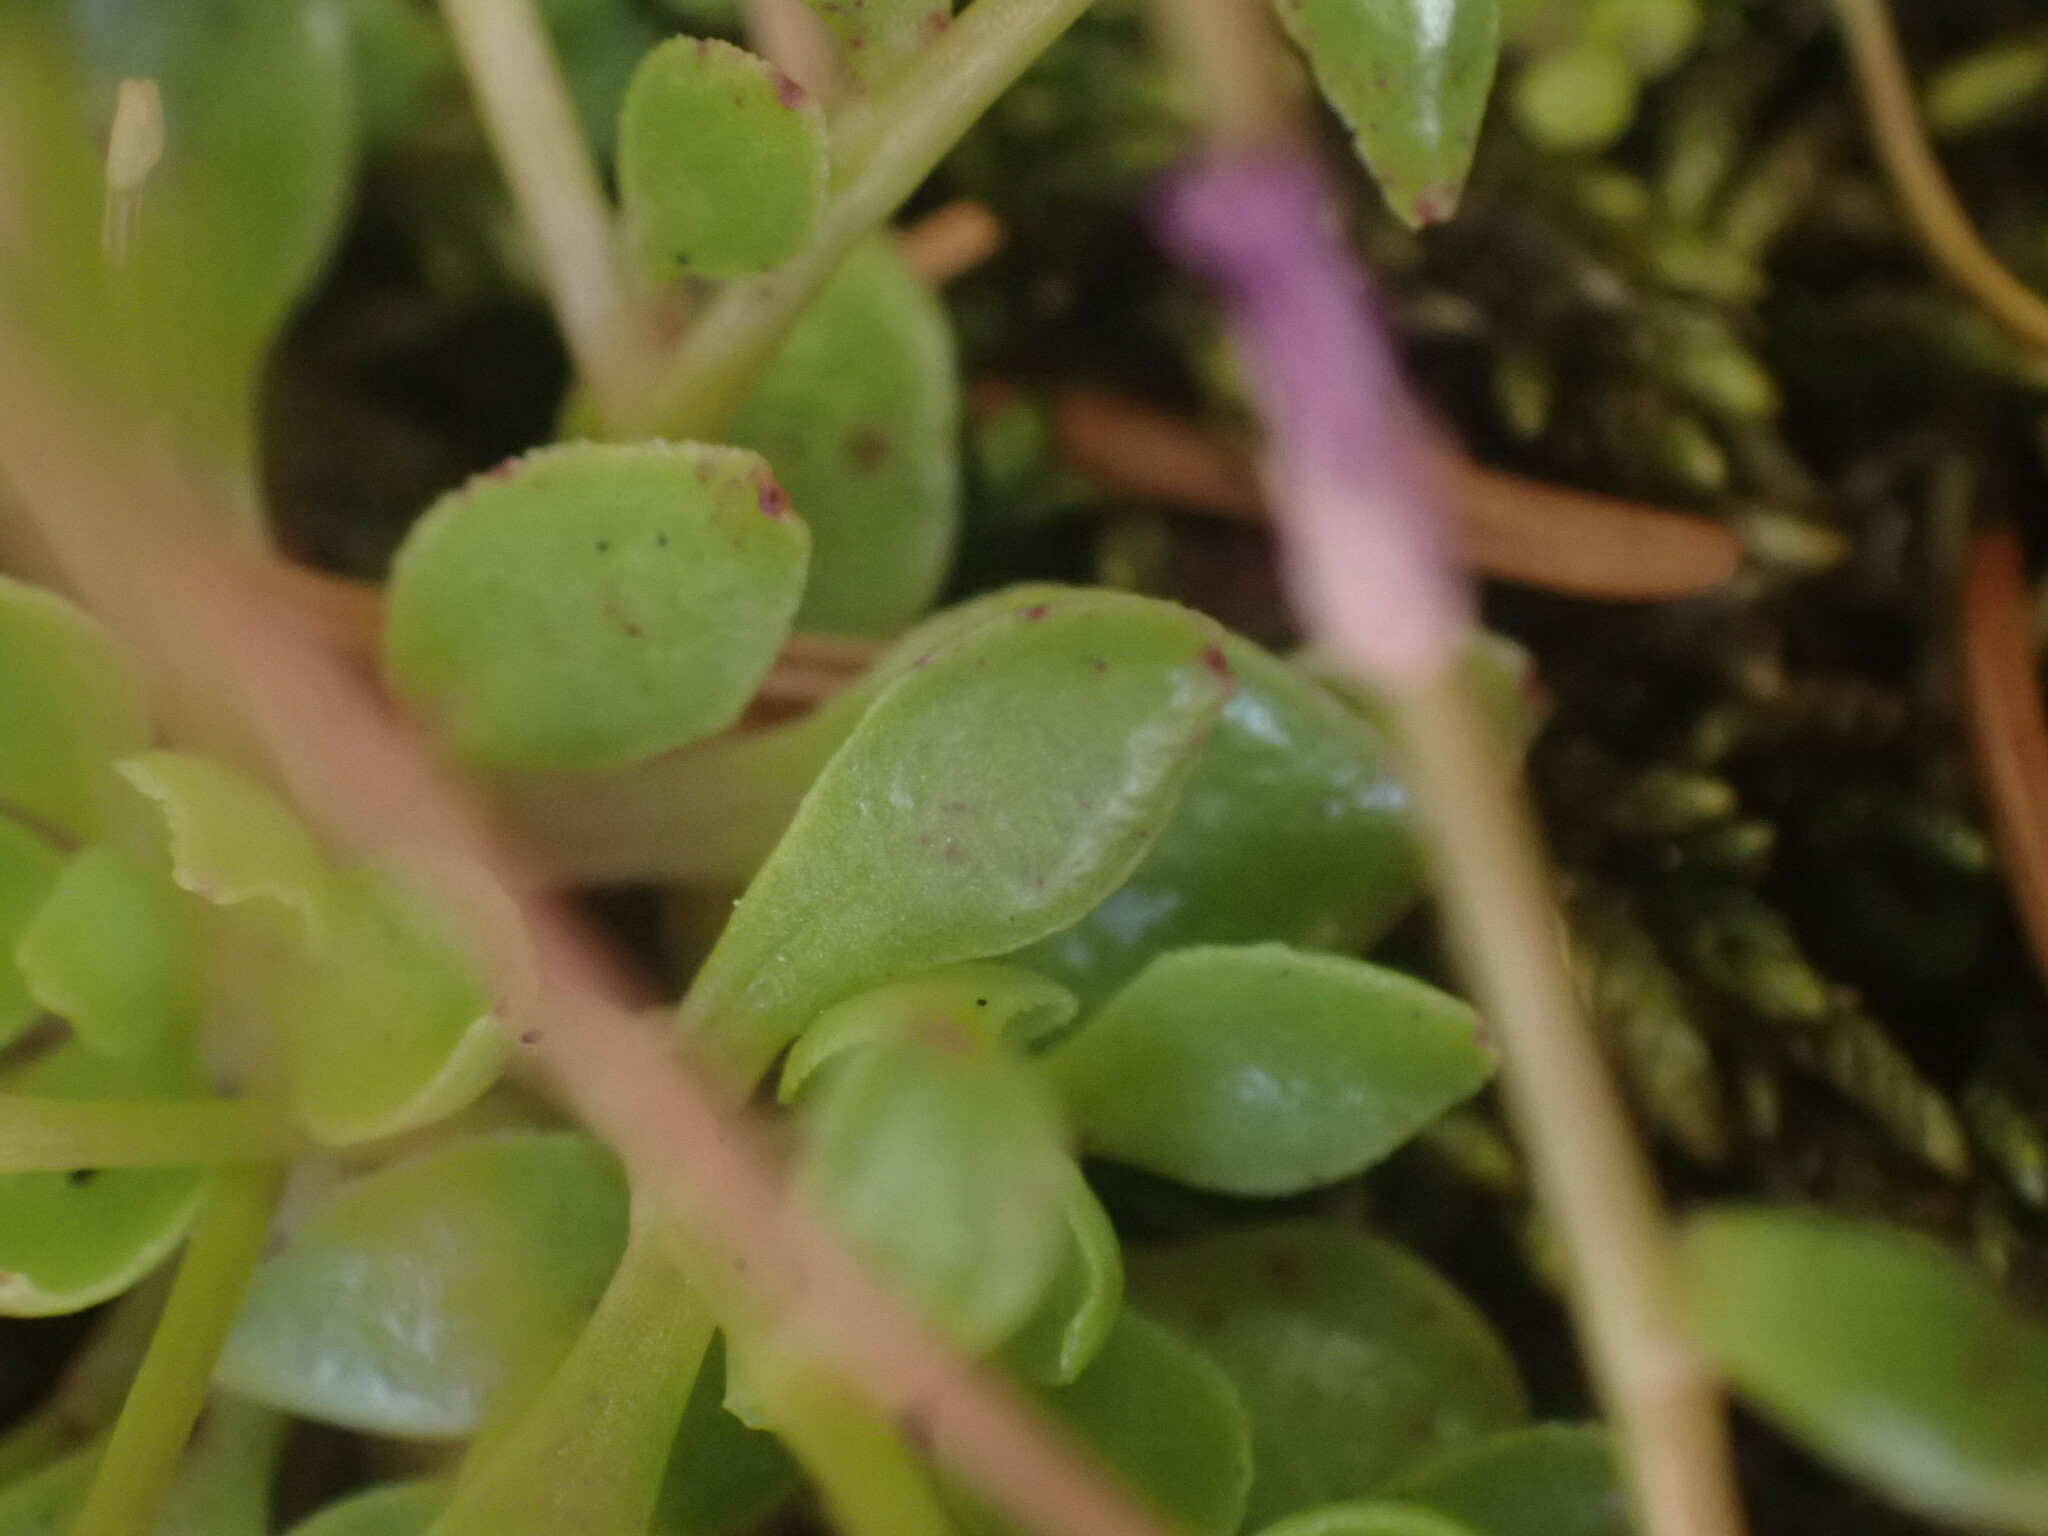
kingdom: Plantae
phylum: Tracheophyta
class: Magnoliopsida
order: Caryophyllales
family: Montiaceae
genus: Montia
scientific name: Montia parvifolia
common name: Small-leaved blinks
